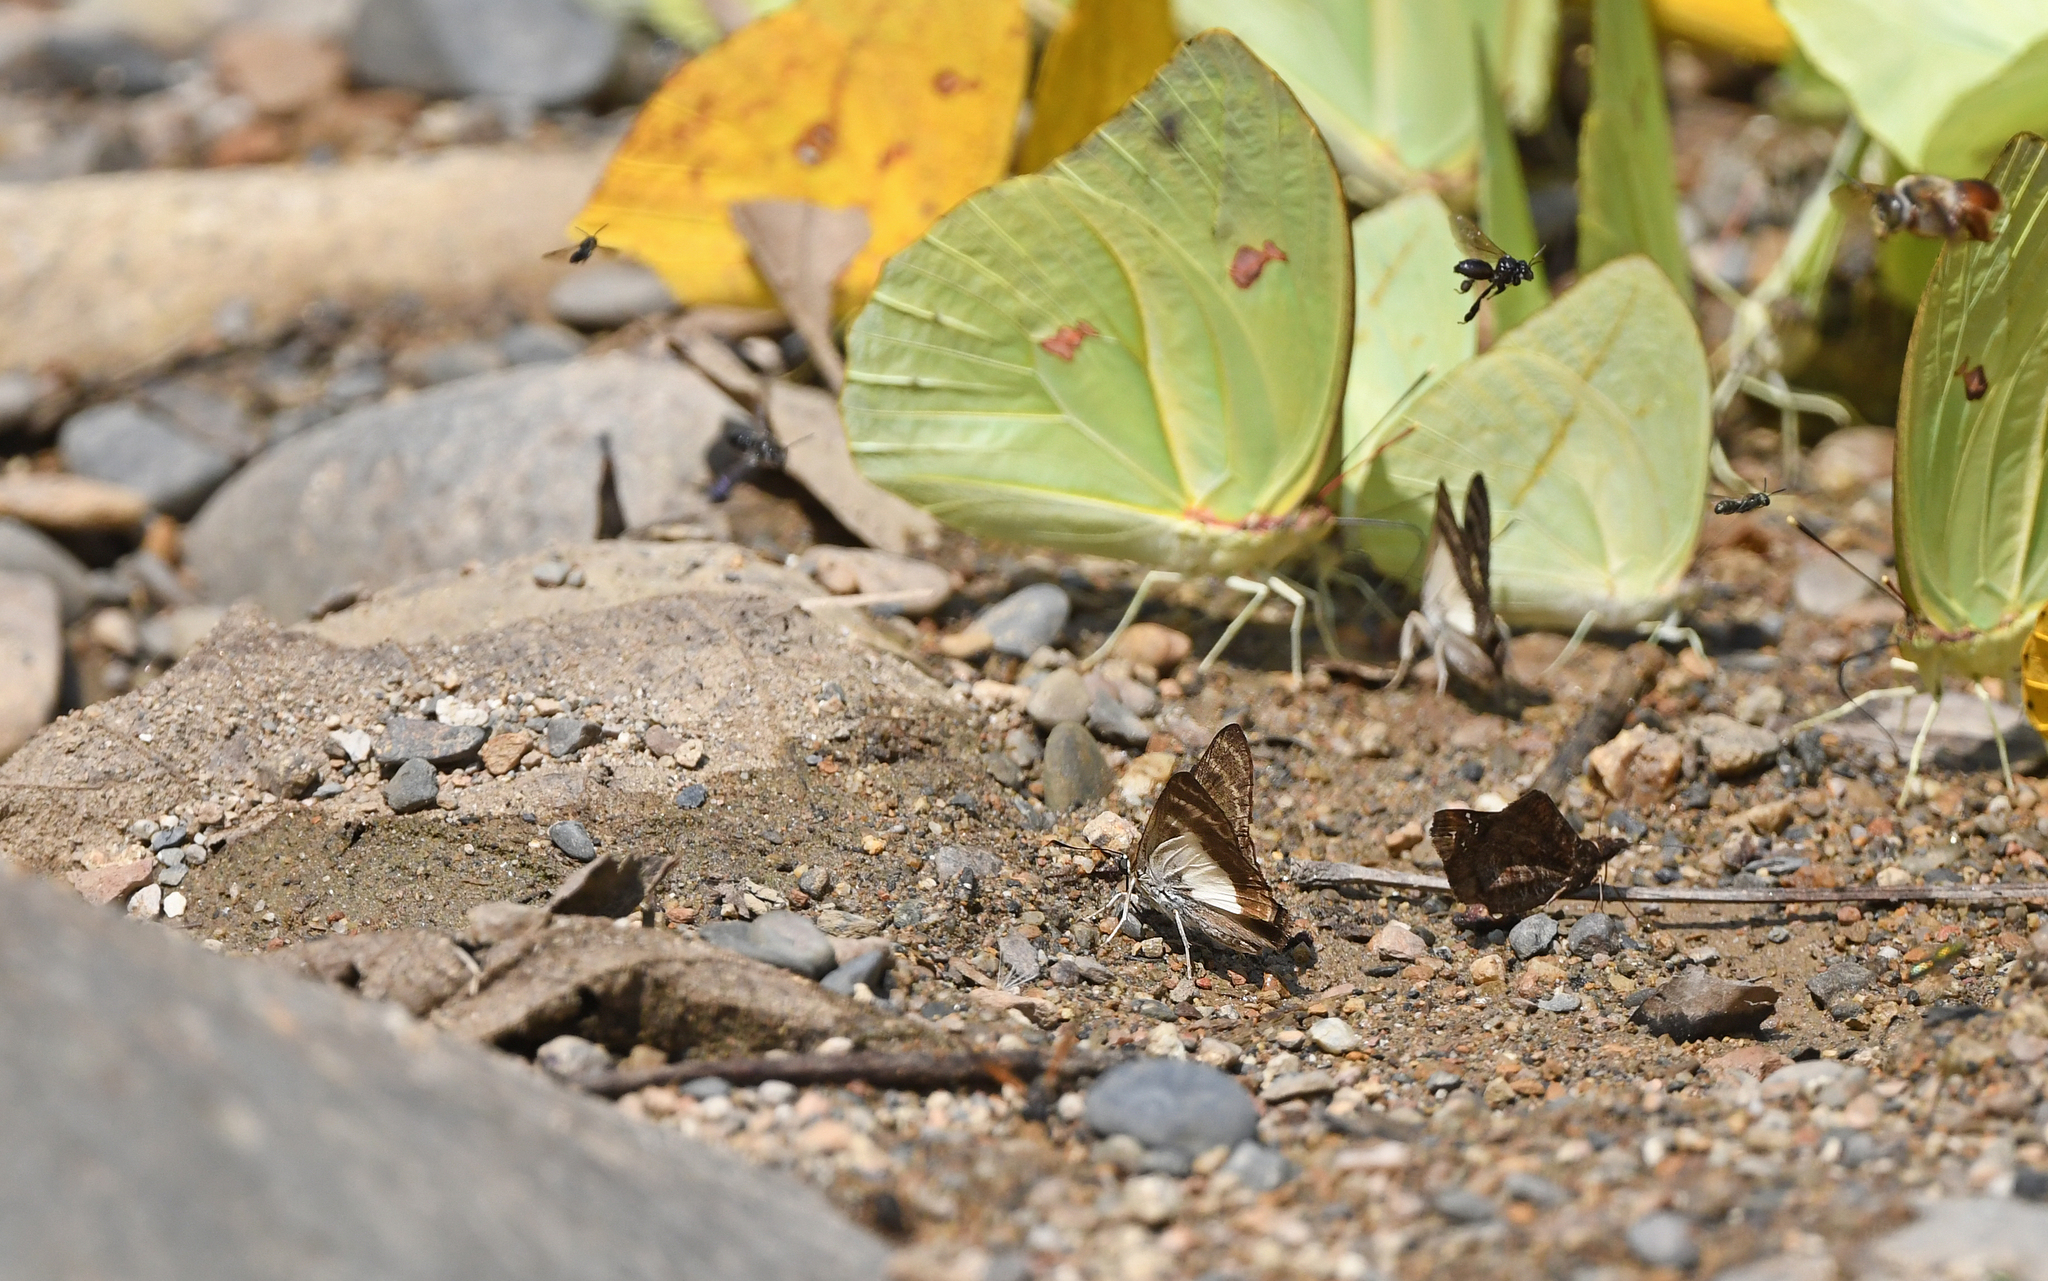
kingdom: Animalia
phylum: Arthropoda
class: Insecta
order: Lepidoptera
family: Hesperiidae
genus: Sophista
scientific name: Sophista aristoteles
